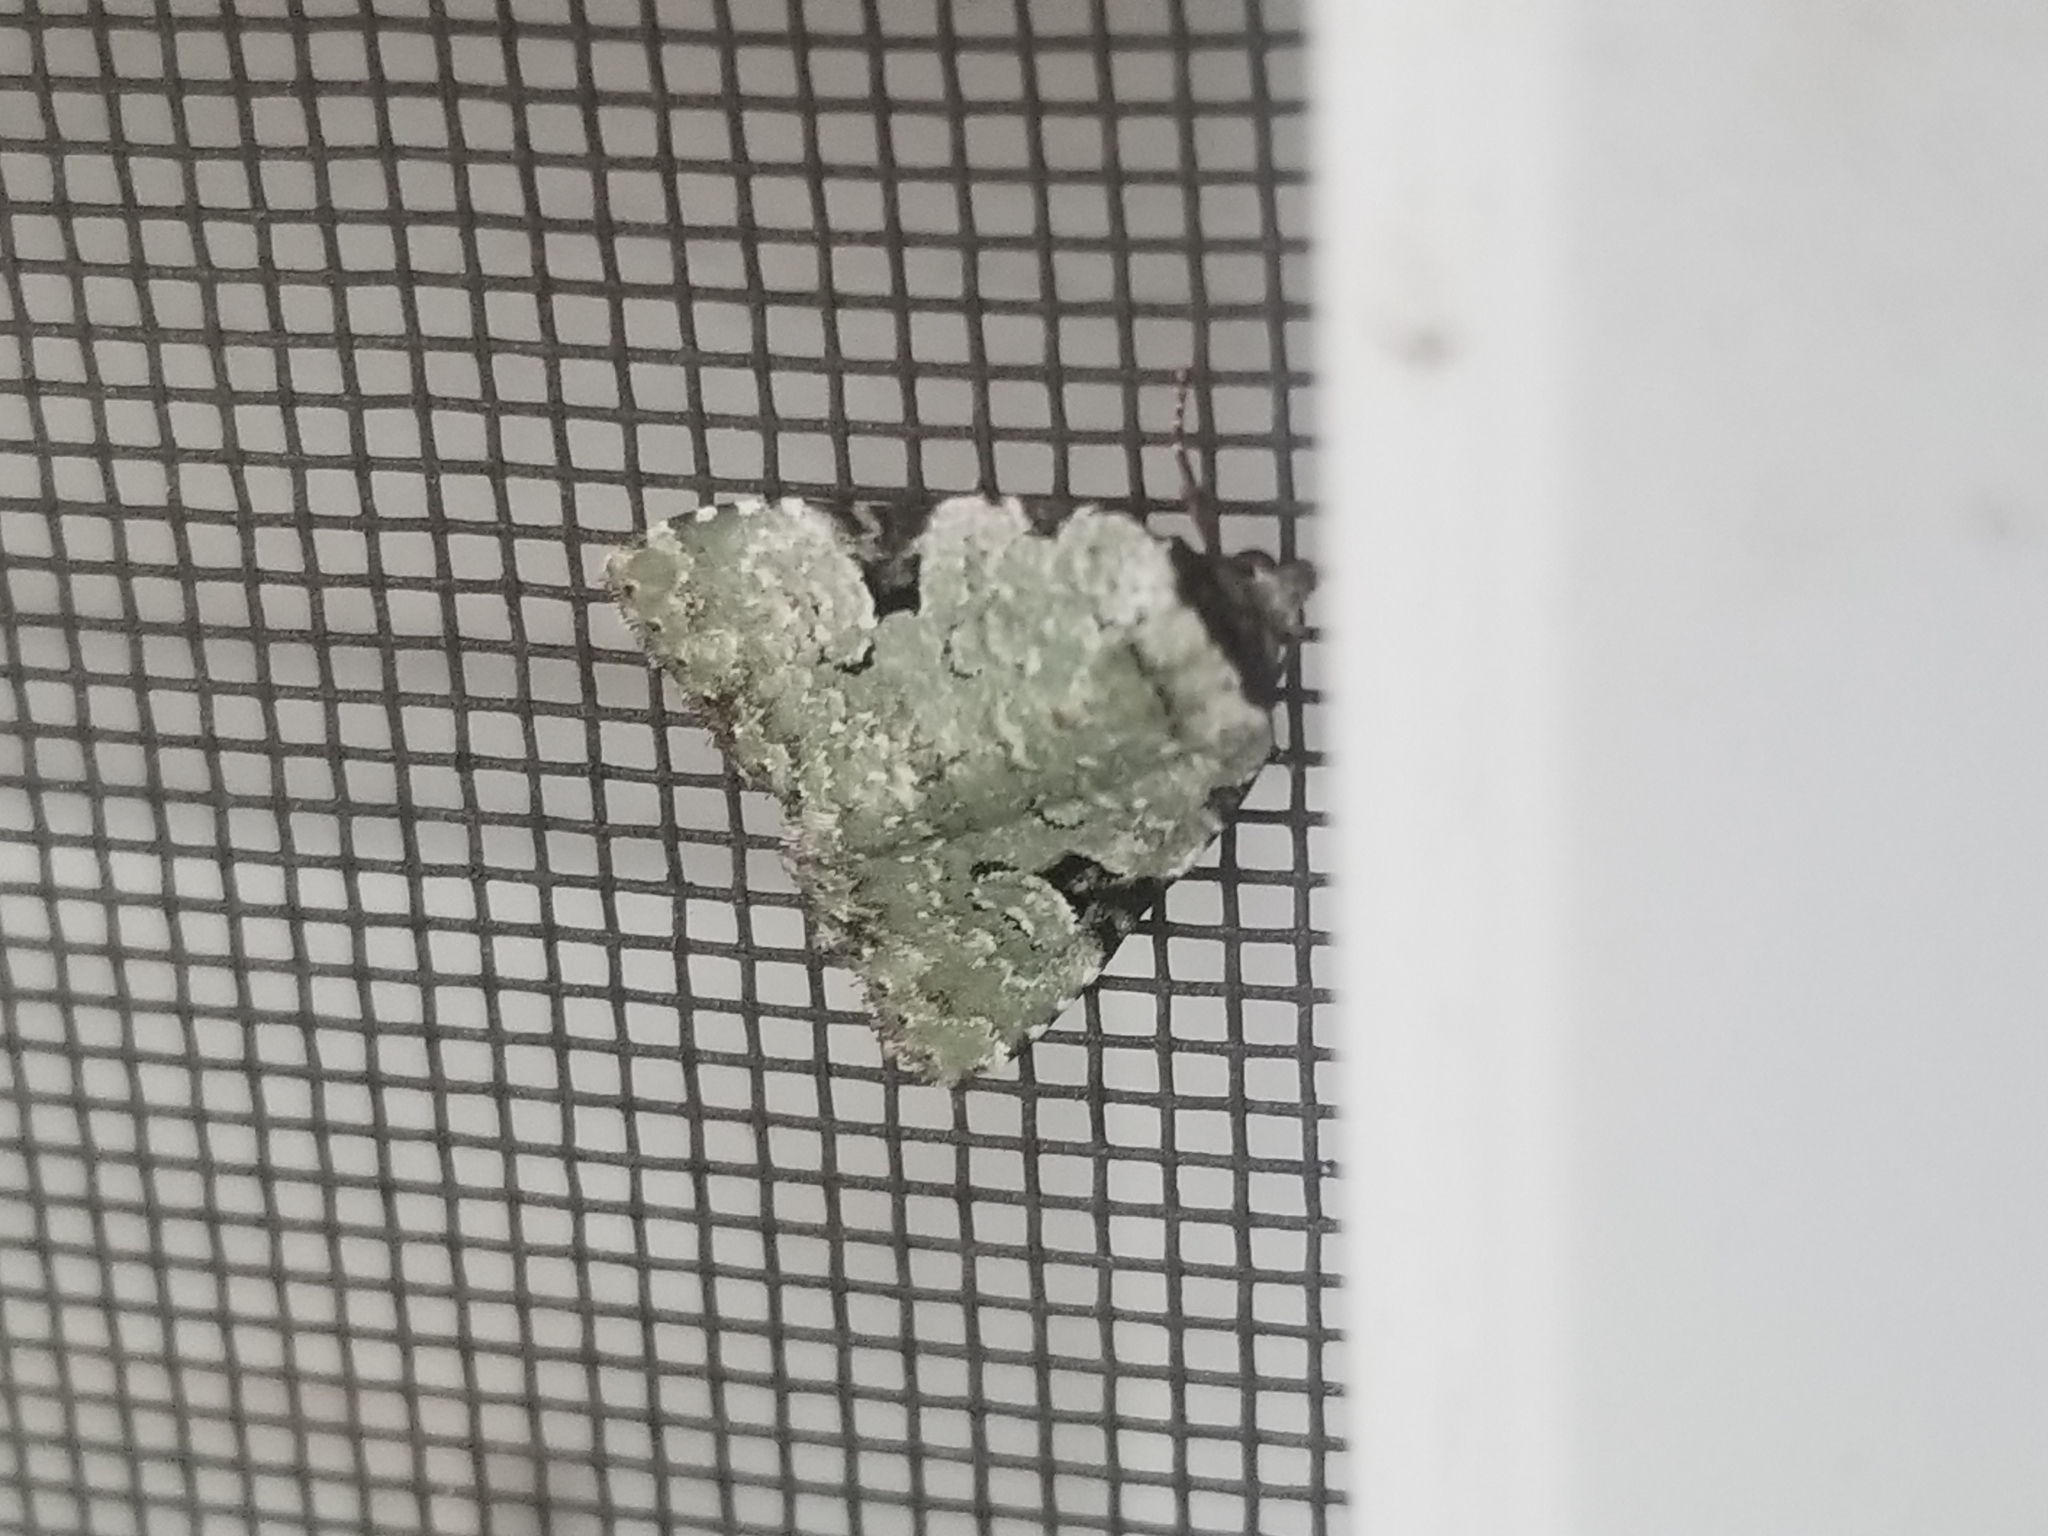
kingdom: Animalia
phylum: Arthropoda
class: Insecta
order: Lepidoptera
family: Noctuidae
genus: Leuconycta
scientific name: Leuconycta diphteroides
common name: Green leuconycta moth
